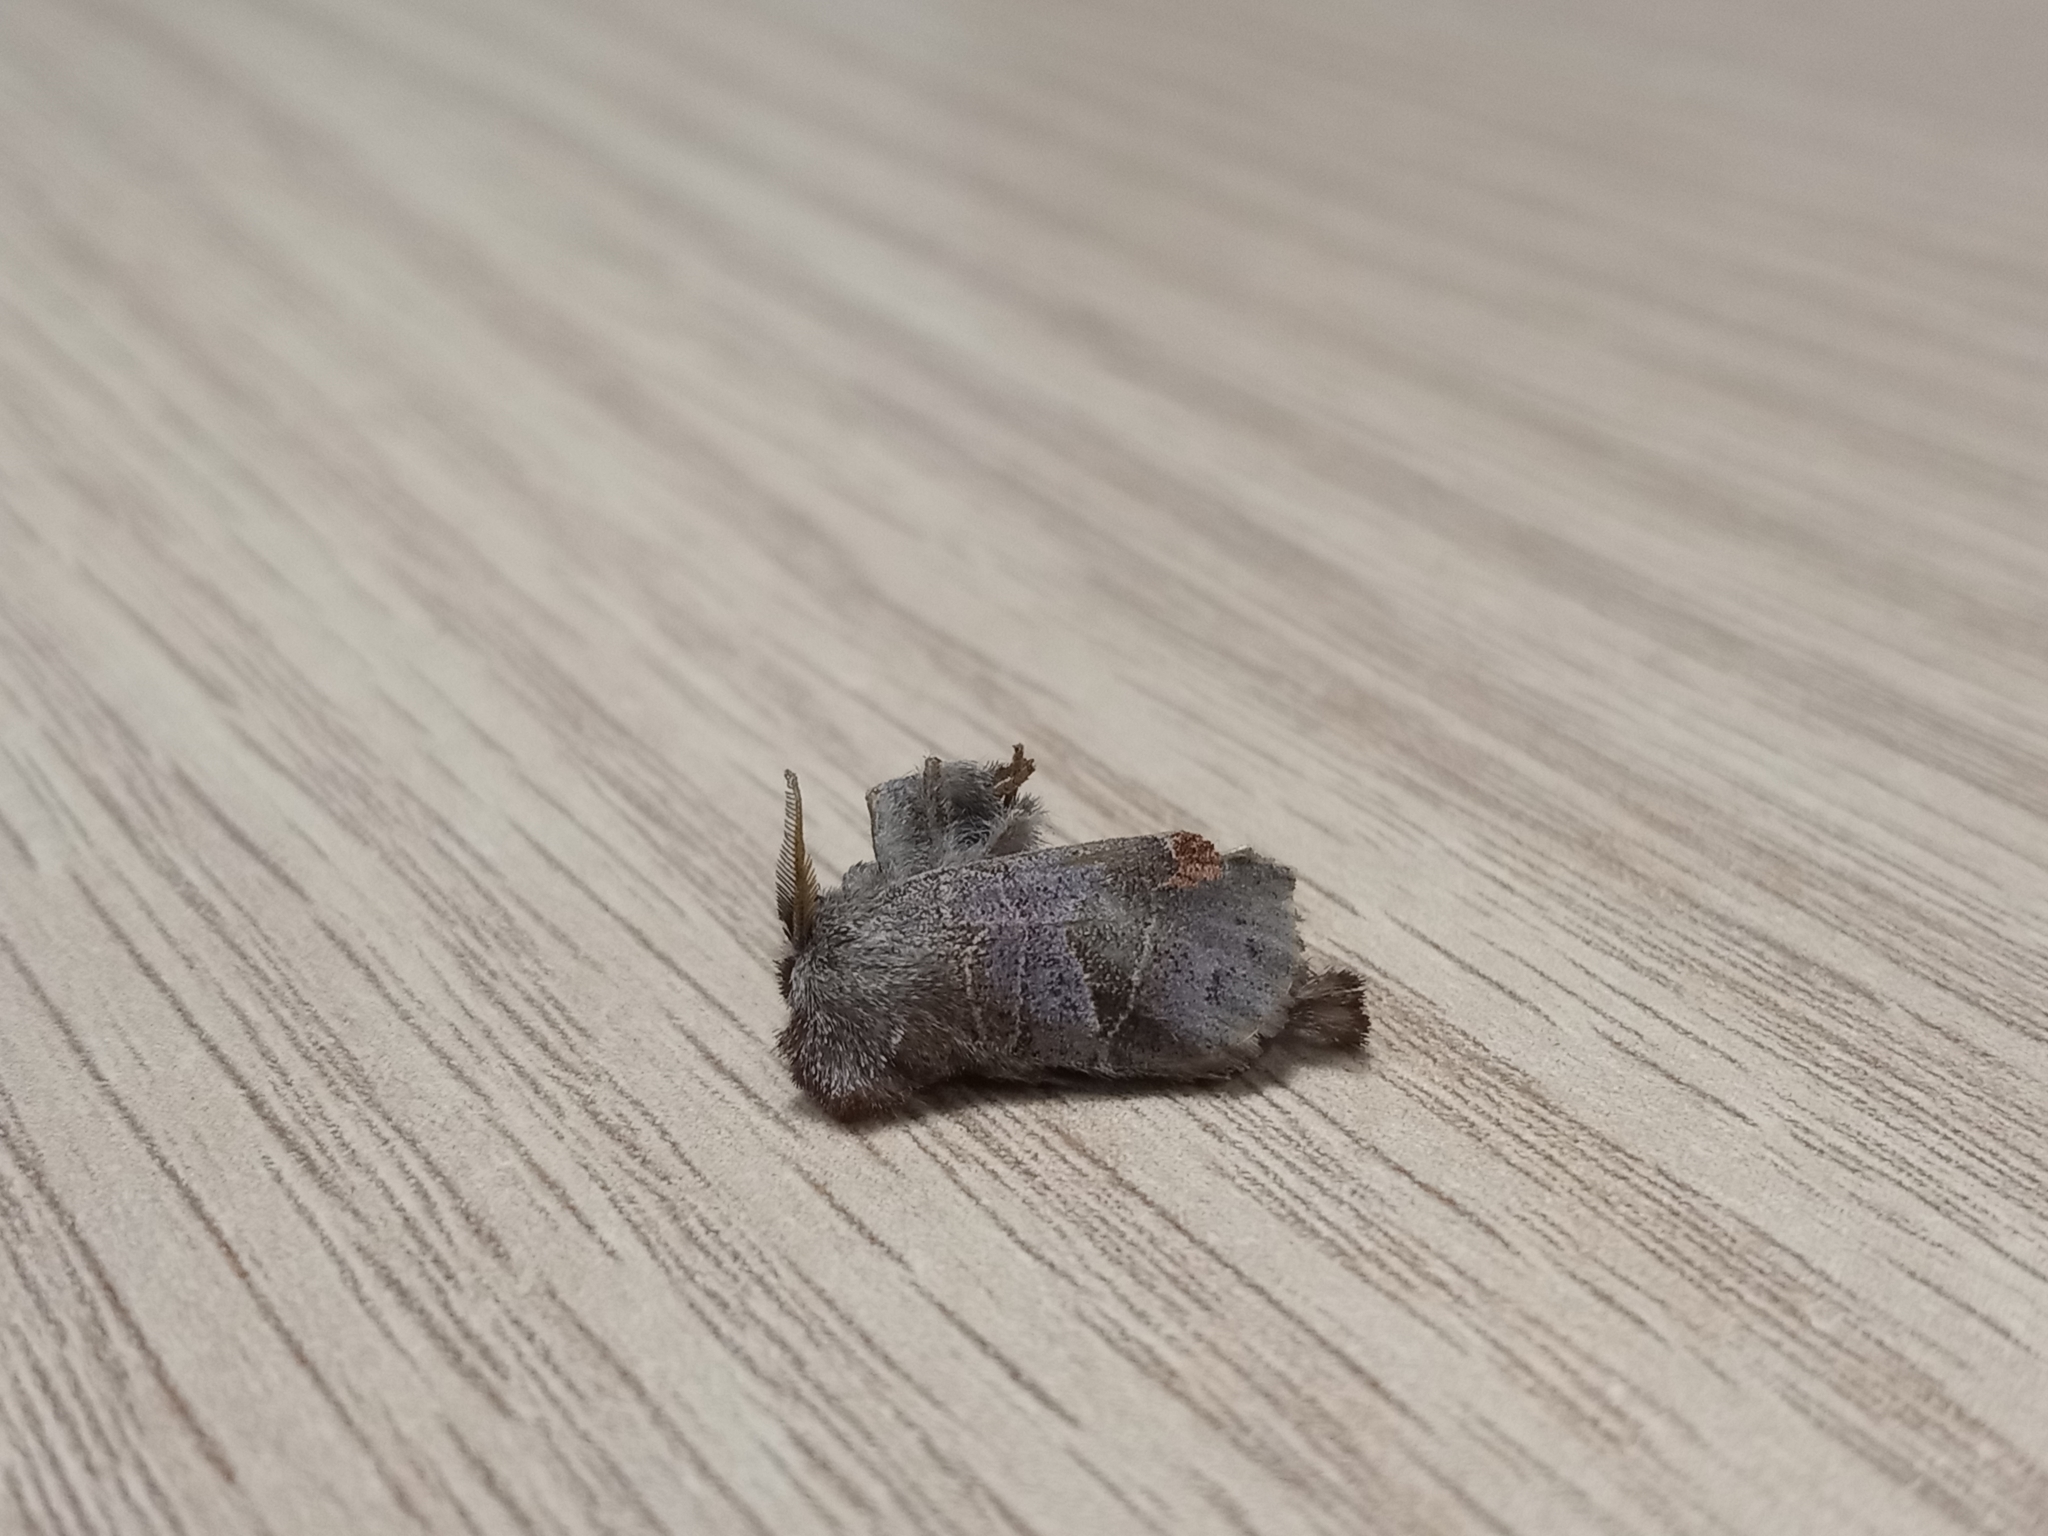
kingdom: Animalia
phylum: Arthropoda
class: Insecta
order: Lepidoptera
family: Notodontidae
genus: Clostera
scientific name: Clostera pigra
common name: Small chocolate-tip
